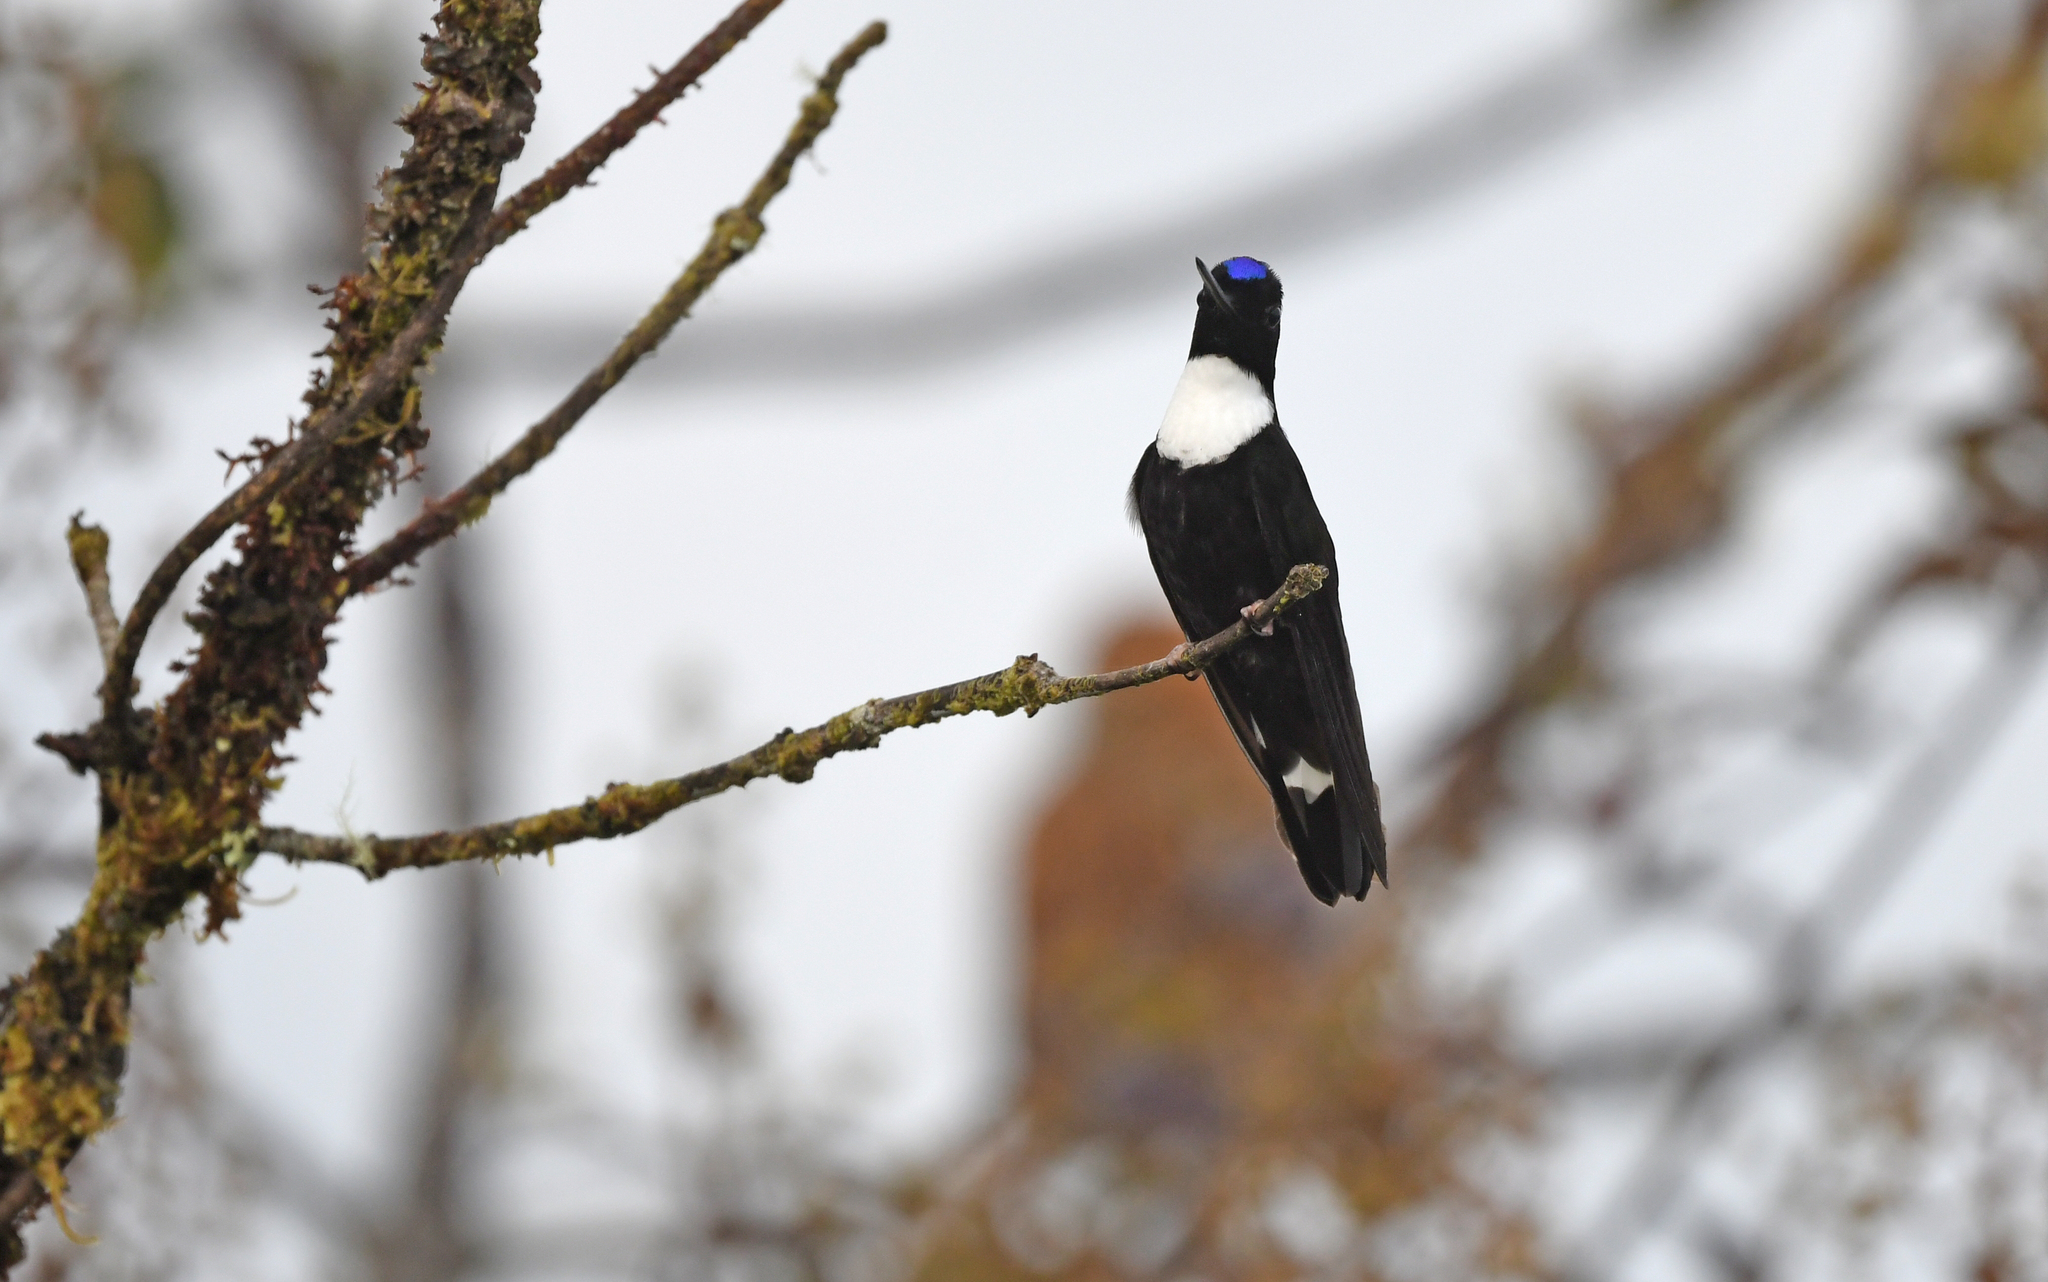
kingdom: Animalia
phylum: Chordata
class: Aves
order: Apodiformes
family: Trochilidae
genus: Coeligena
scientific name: Coeligena torquata
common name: Collared inca
